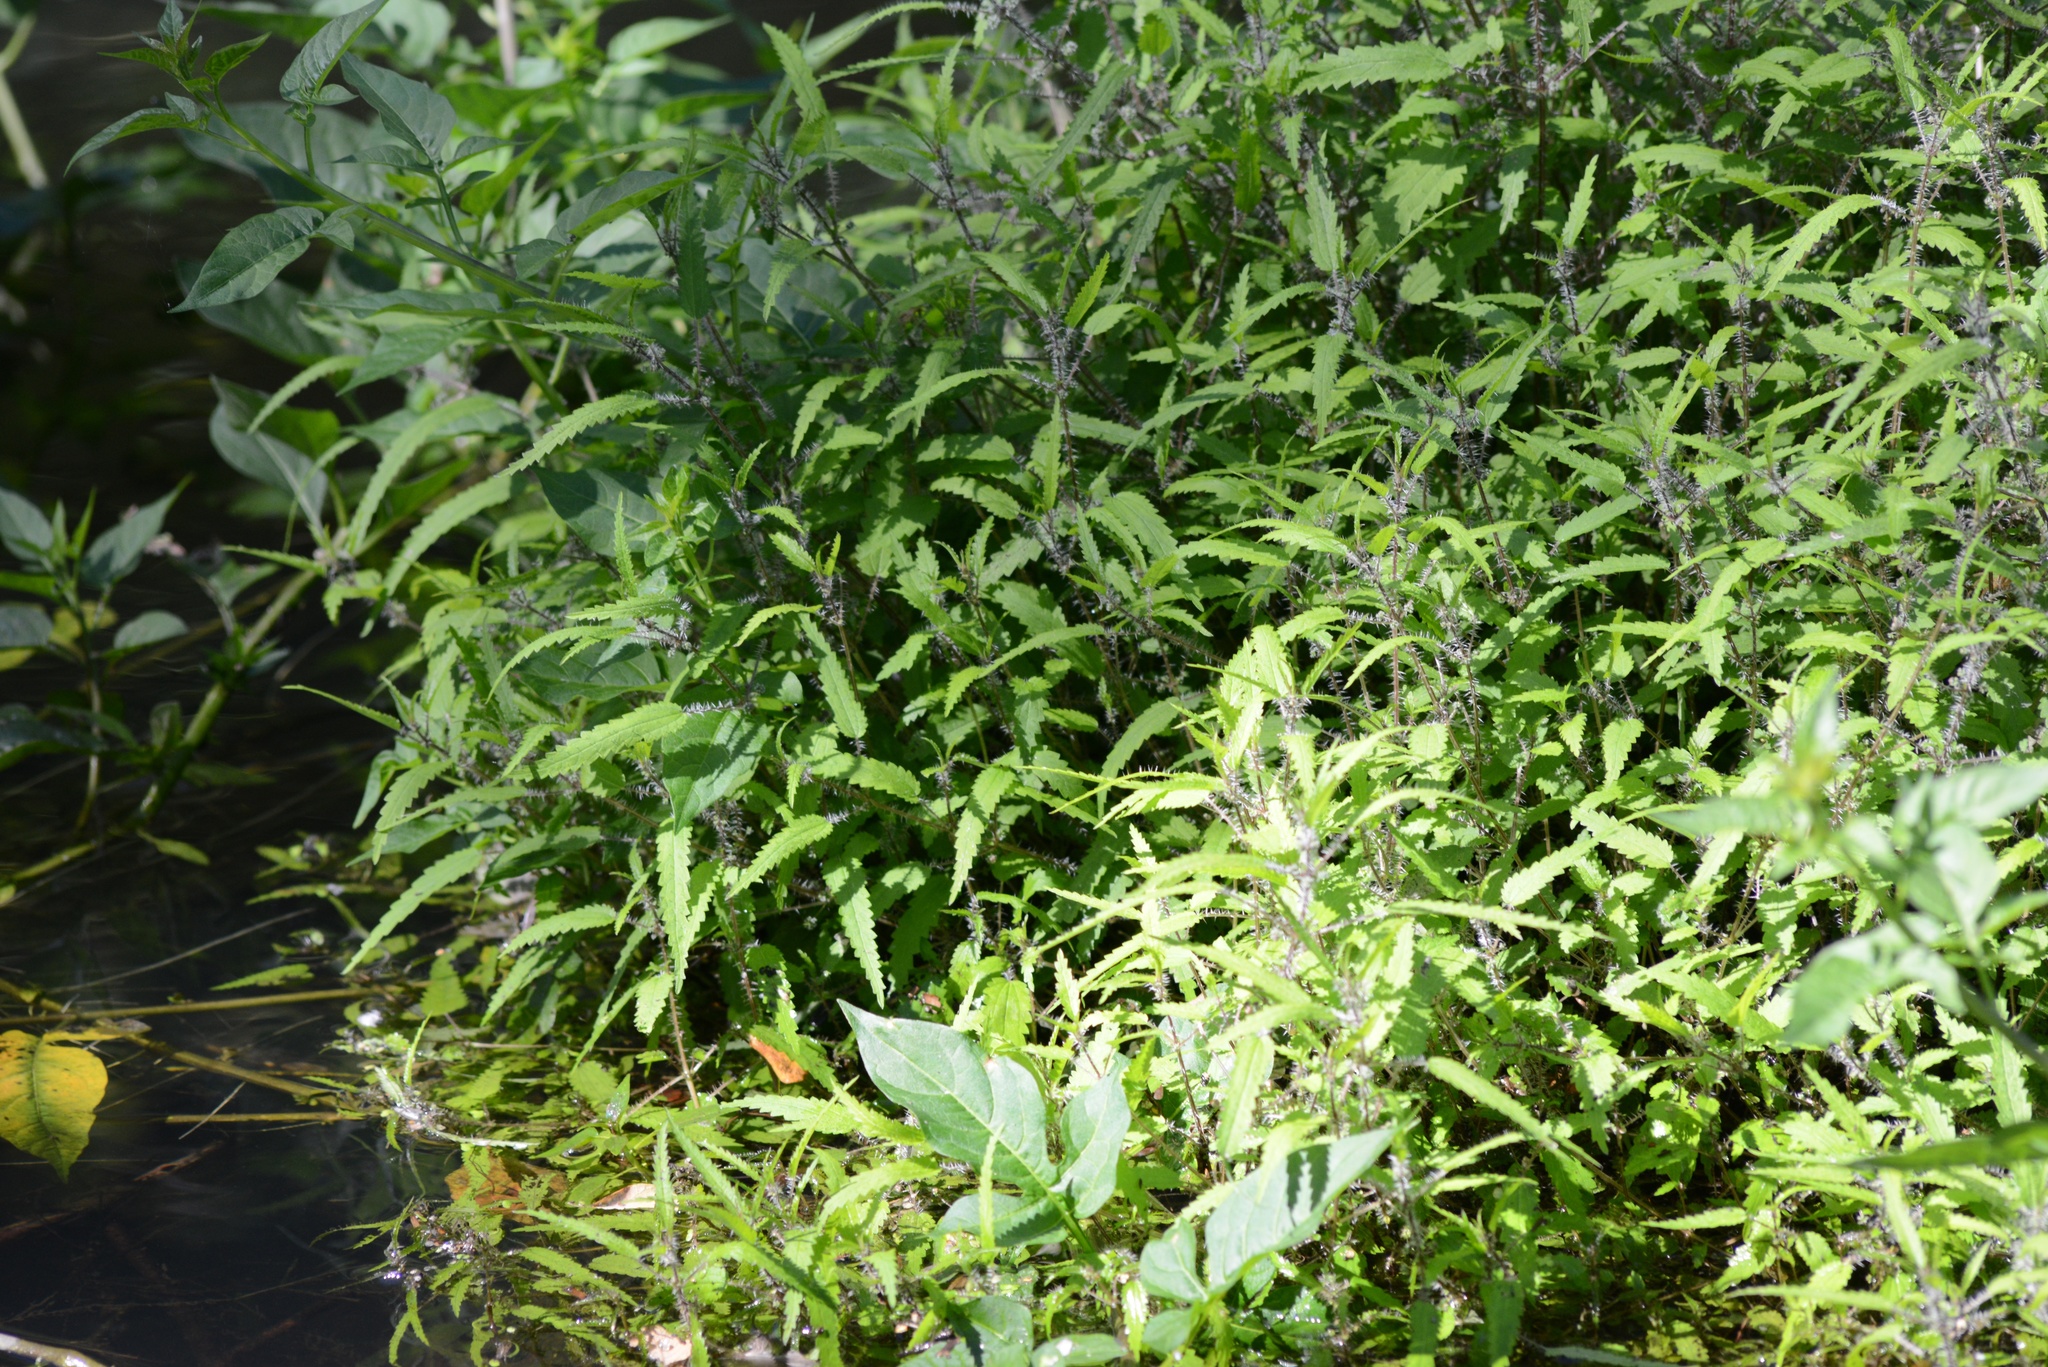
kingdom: Plantae
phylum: Tracheophyta
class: Magnoliopsida
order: Rosales
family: Urticaceae
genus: Urtica
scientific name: Urtica perconfusa
